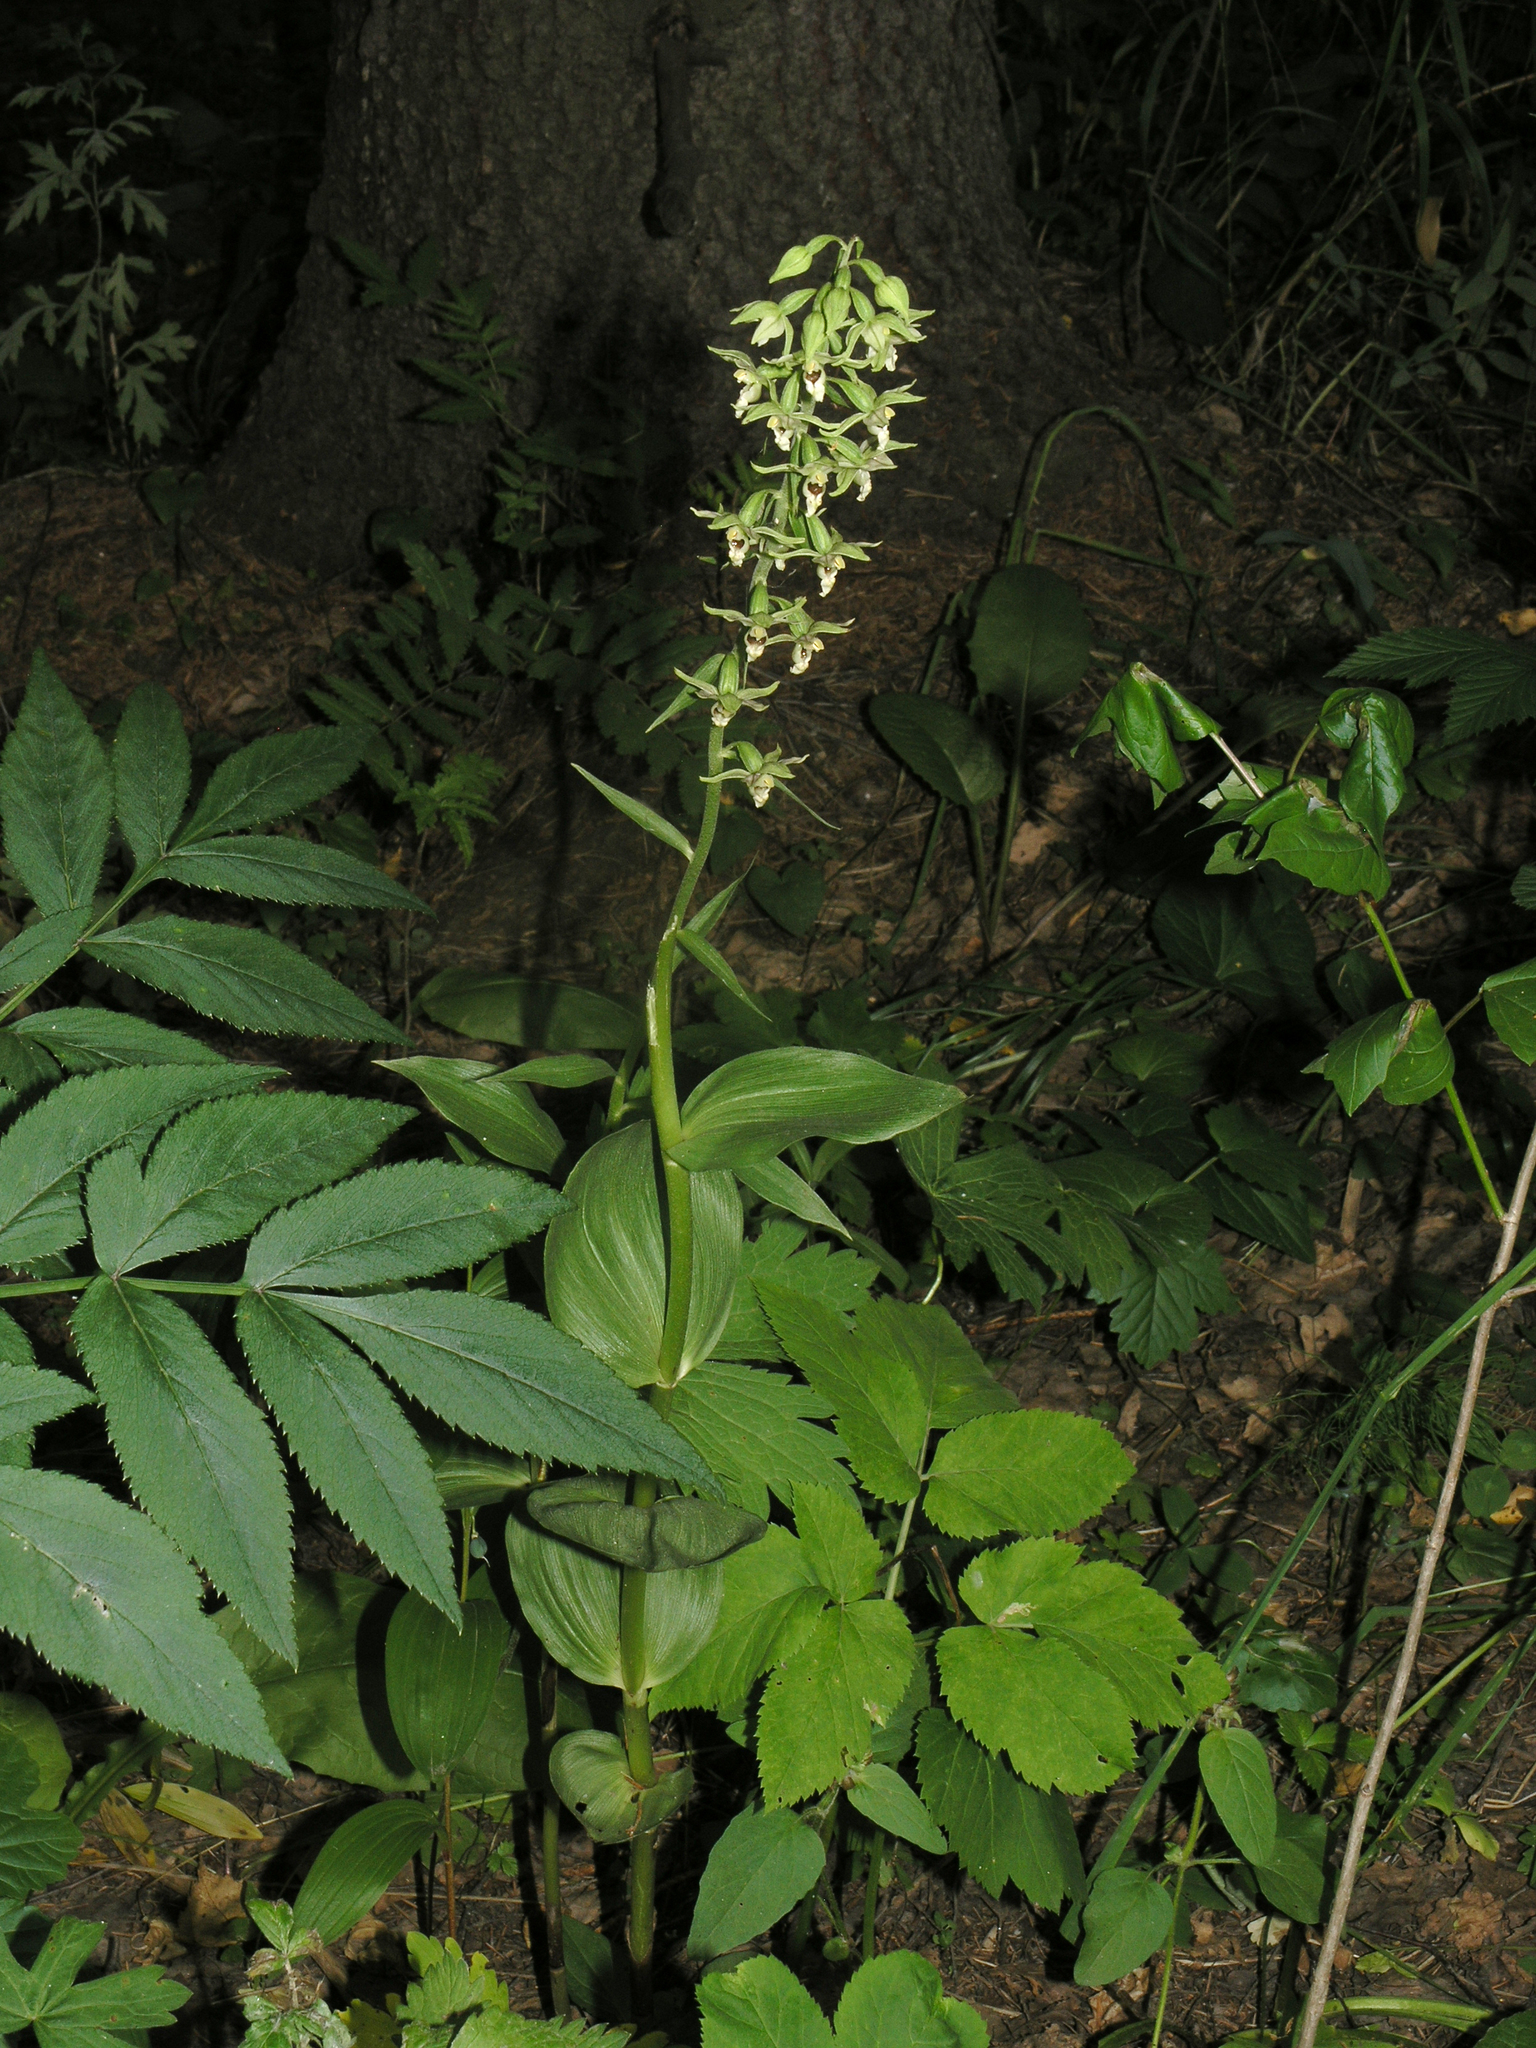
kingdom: Plantae
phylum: Tracheophyta
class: Liliopsida
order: Asparagales
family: Orchidaceae
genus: Epipactis
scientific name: Epipactis helleborine
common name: Broad-leaved helleborine
